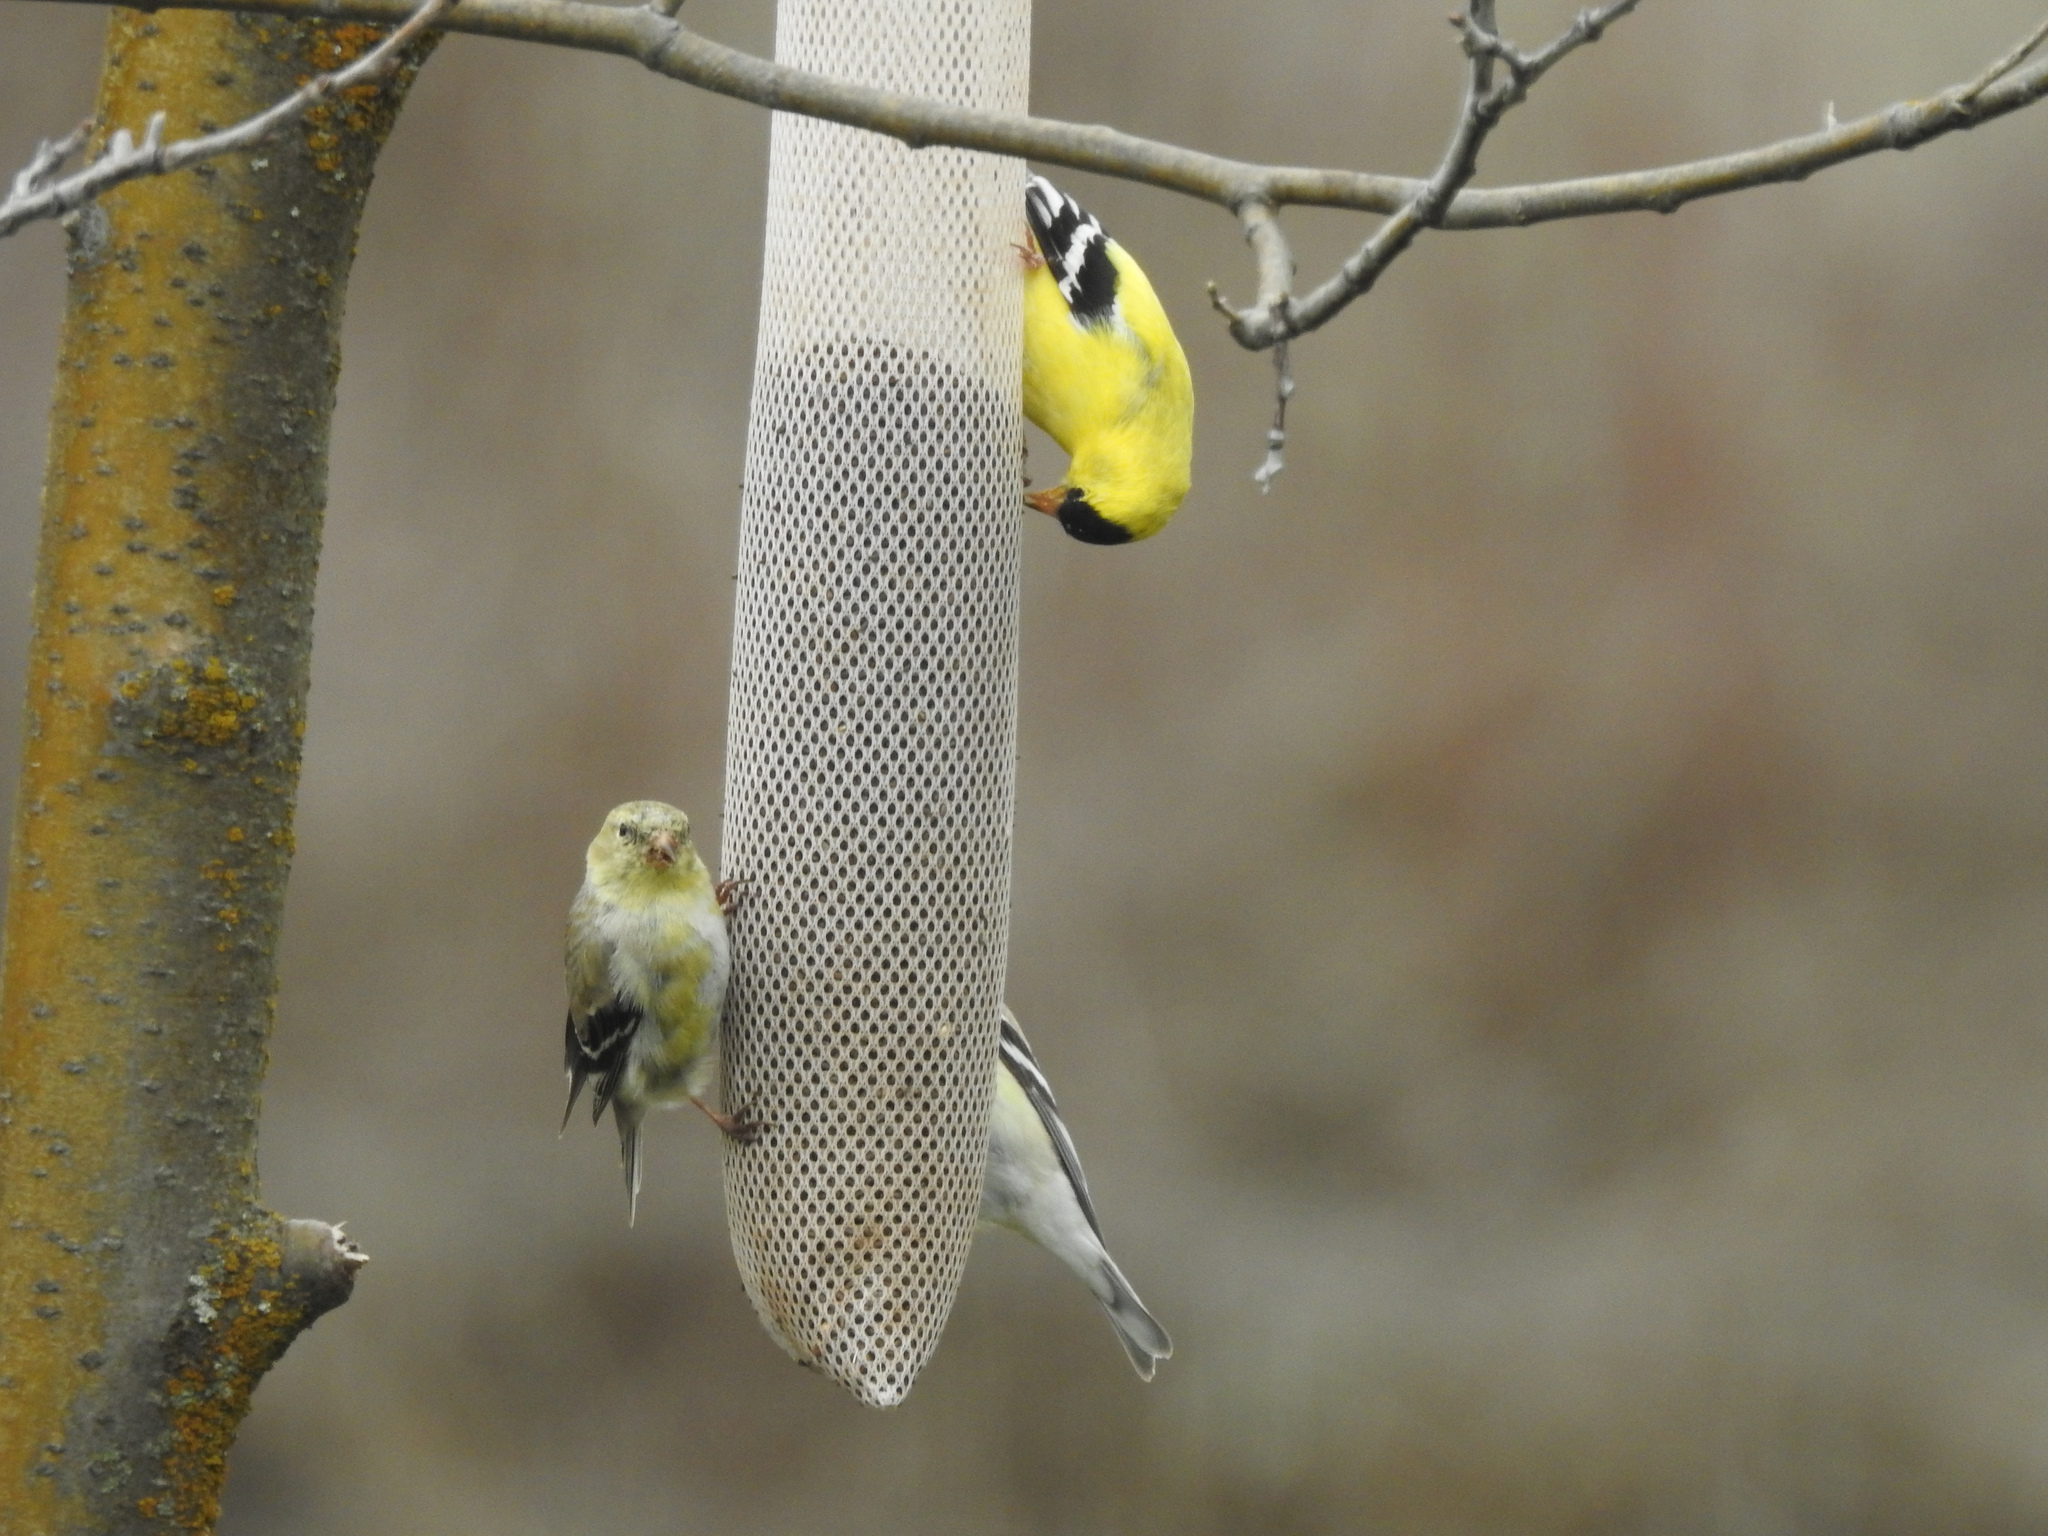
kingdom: Animalia
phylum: Chordata
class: Aves
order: Passeriformes
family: Fringillidae
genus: Spinus
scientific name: Spinus tristis
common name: American goldfinch
